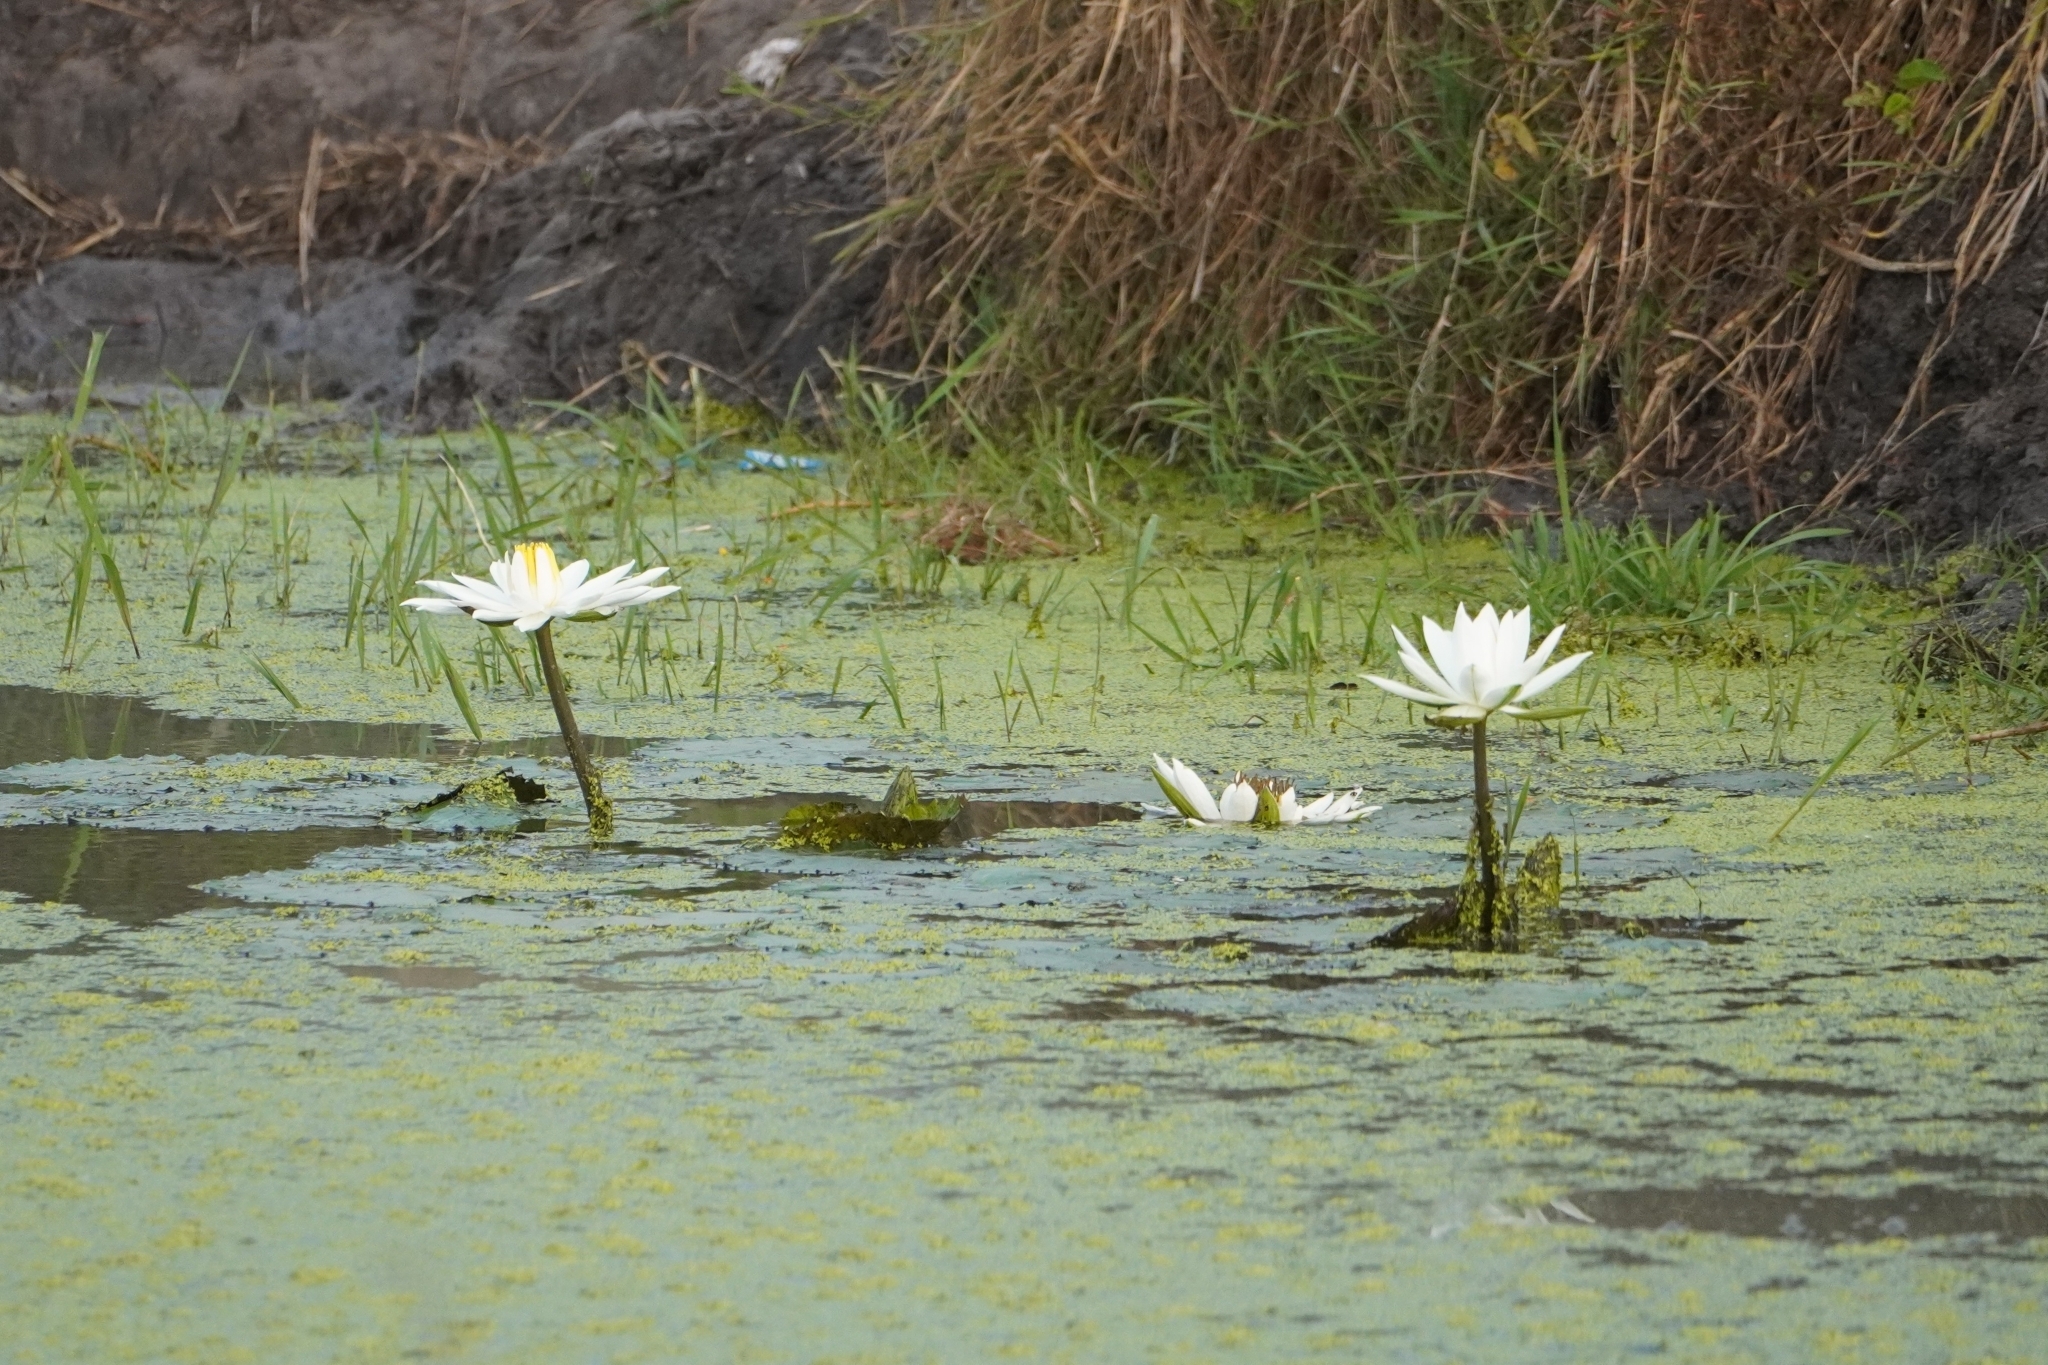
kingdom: Plantae
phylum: Tracheophyta
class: Magnoliopsida
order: Nymphaeales
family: Nymphaeaceae
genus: Nymphaea
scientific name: Nymphaea lotus
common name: White egyptian lotus
